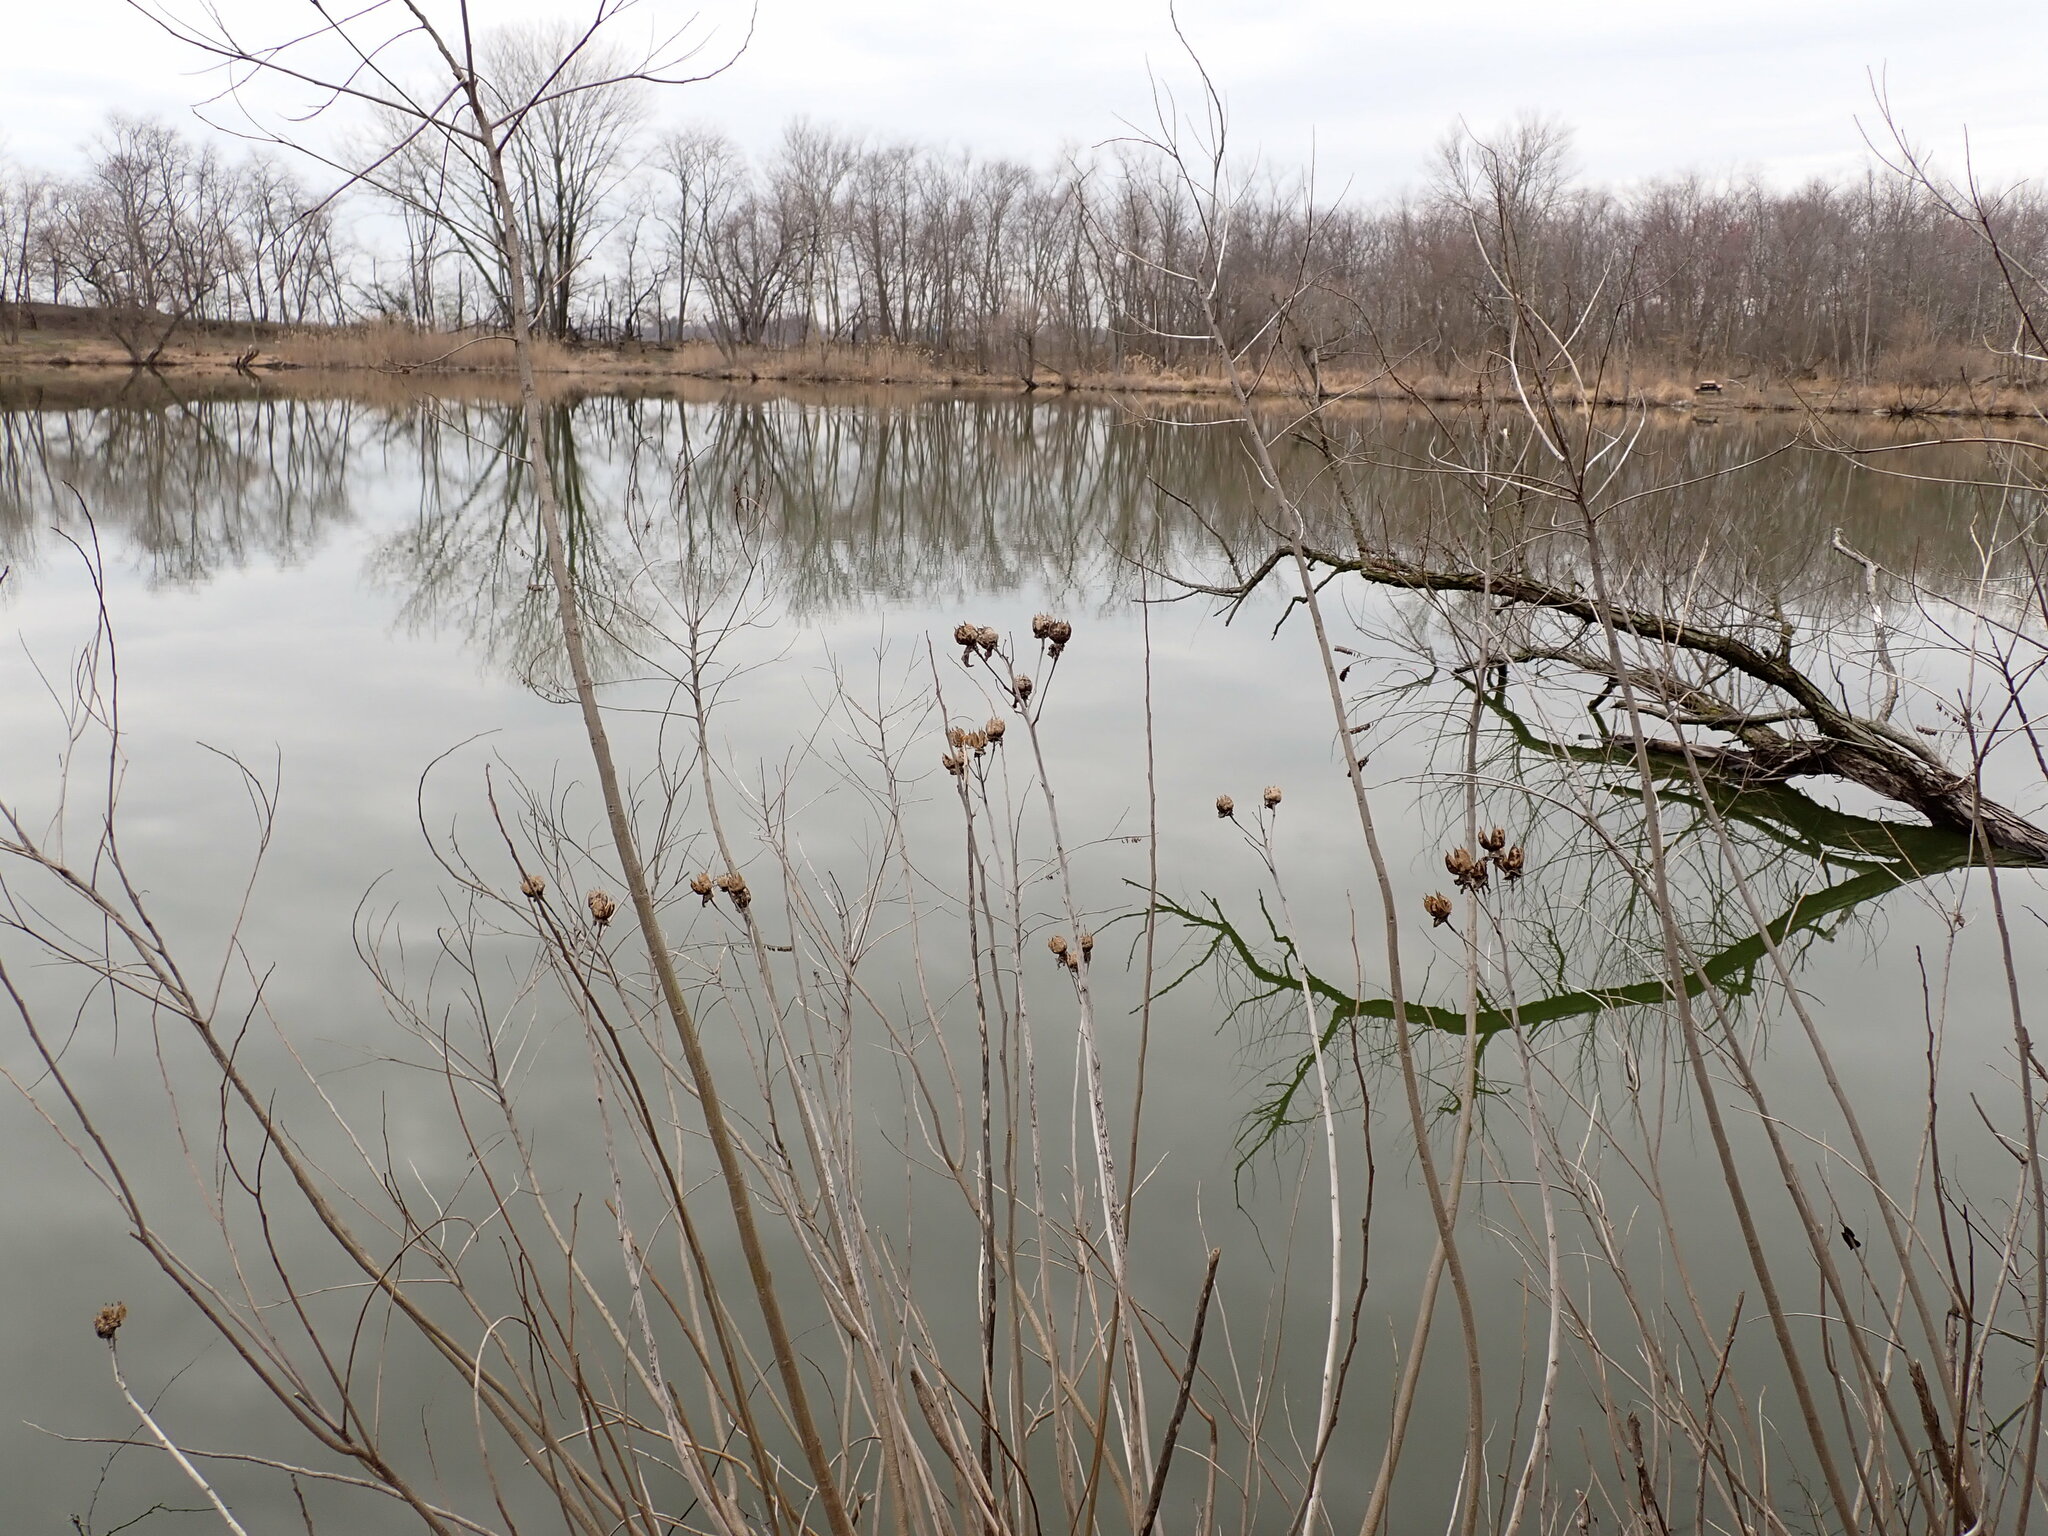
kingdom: Plantae
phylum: Tracheophyta
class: Magnoliopsida
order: Malvales
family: Malvaceae
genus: Hibiscus
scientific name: Hibiscus moscheutos
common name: Common rose-mallow
